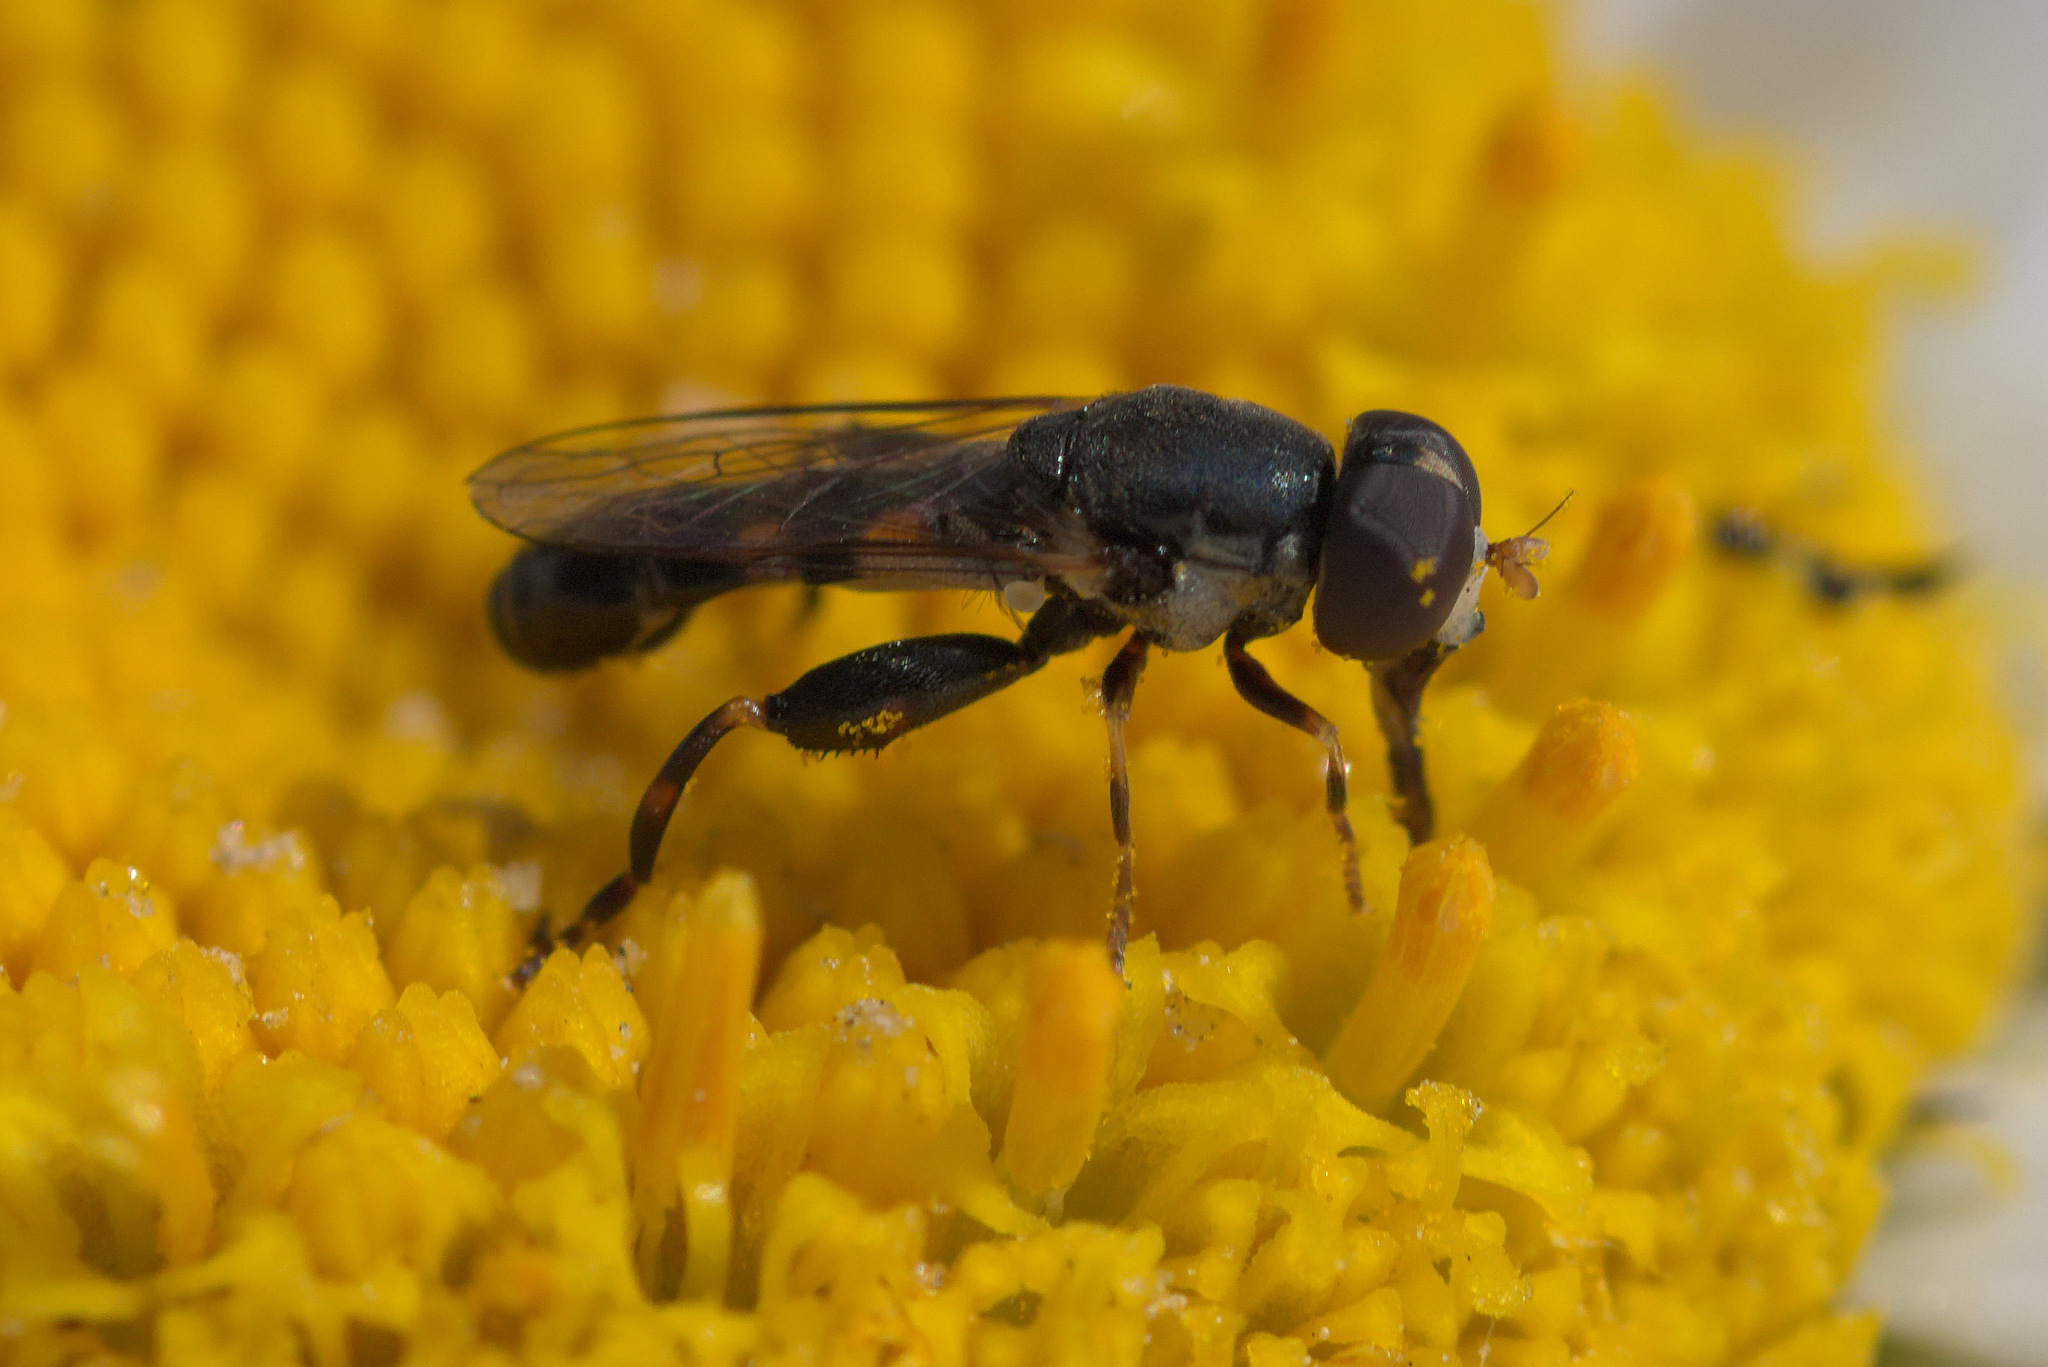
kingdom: Animalia
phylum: Arthropoda
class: Insecta
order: Diptera
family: Syrphidae
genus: Syritta
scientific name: Syritta pipiens
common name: Hover fly
